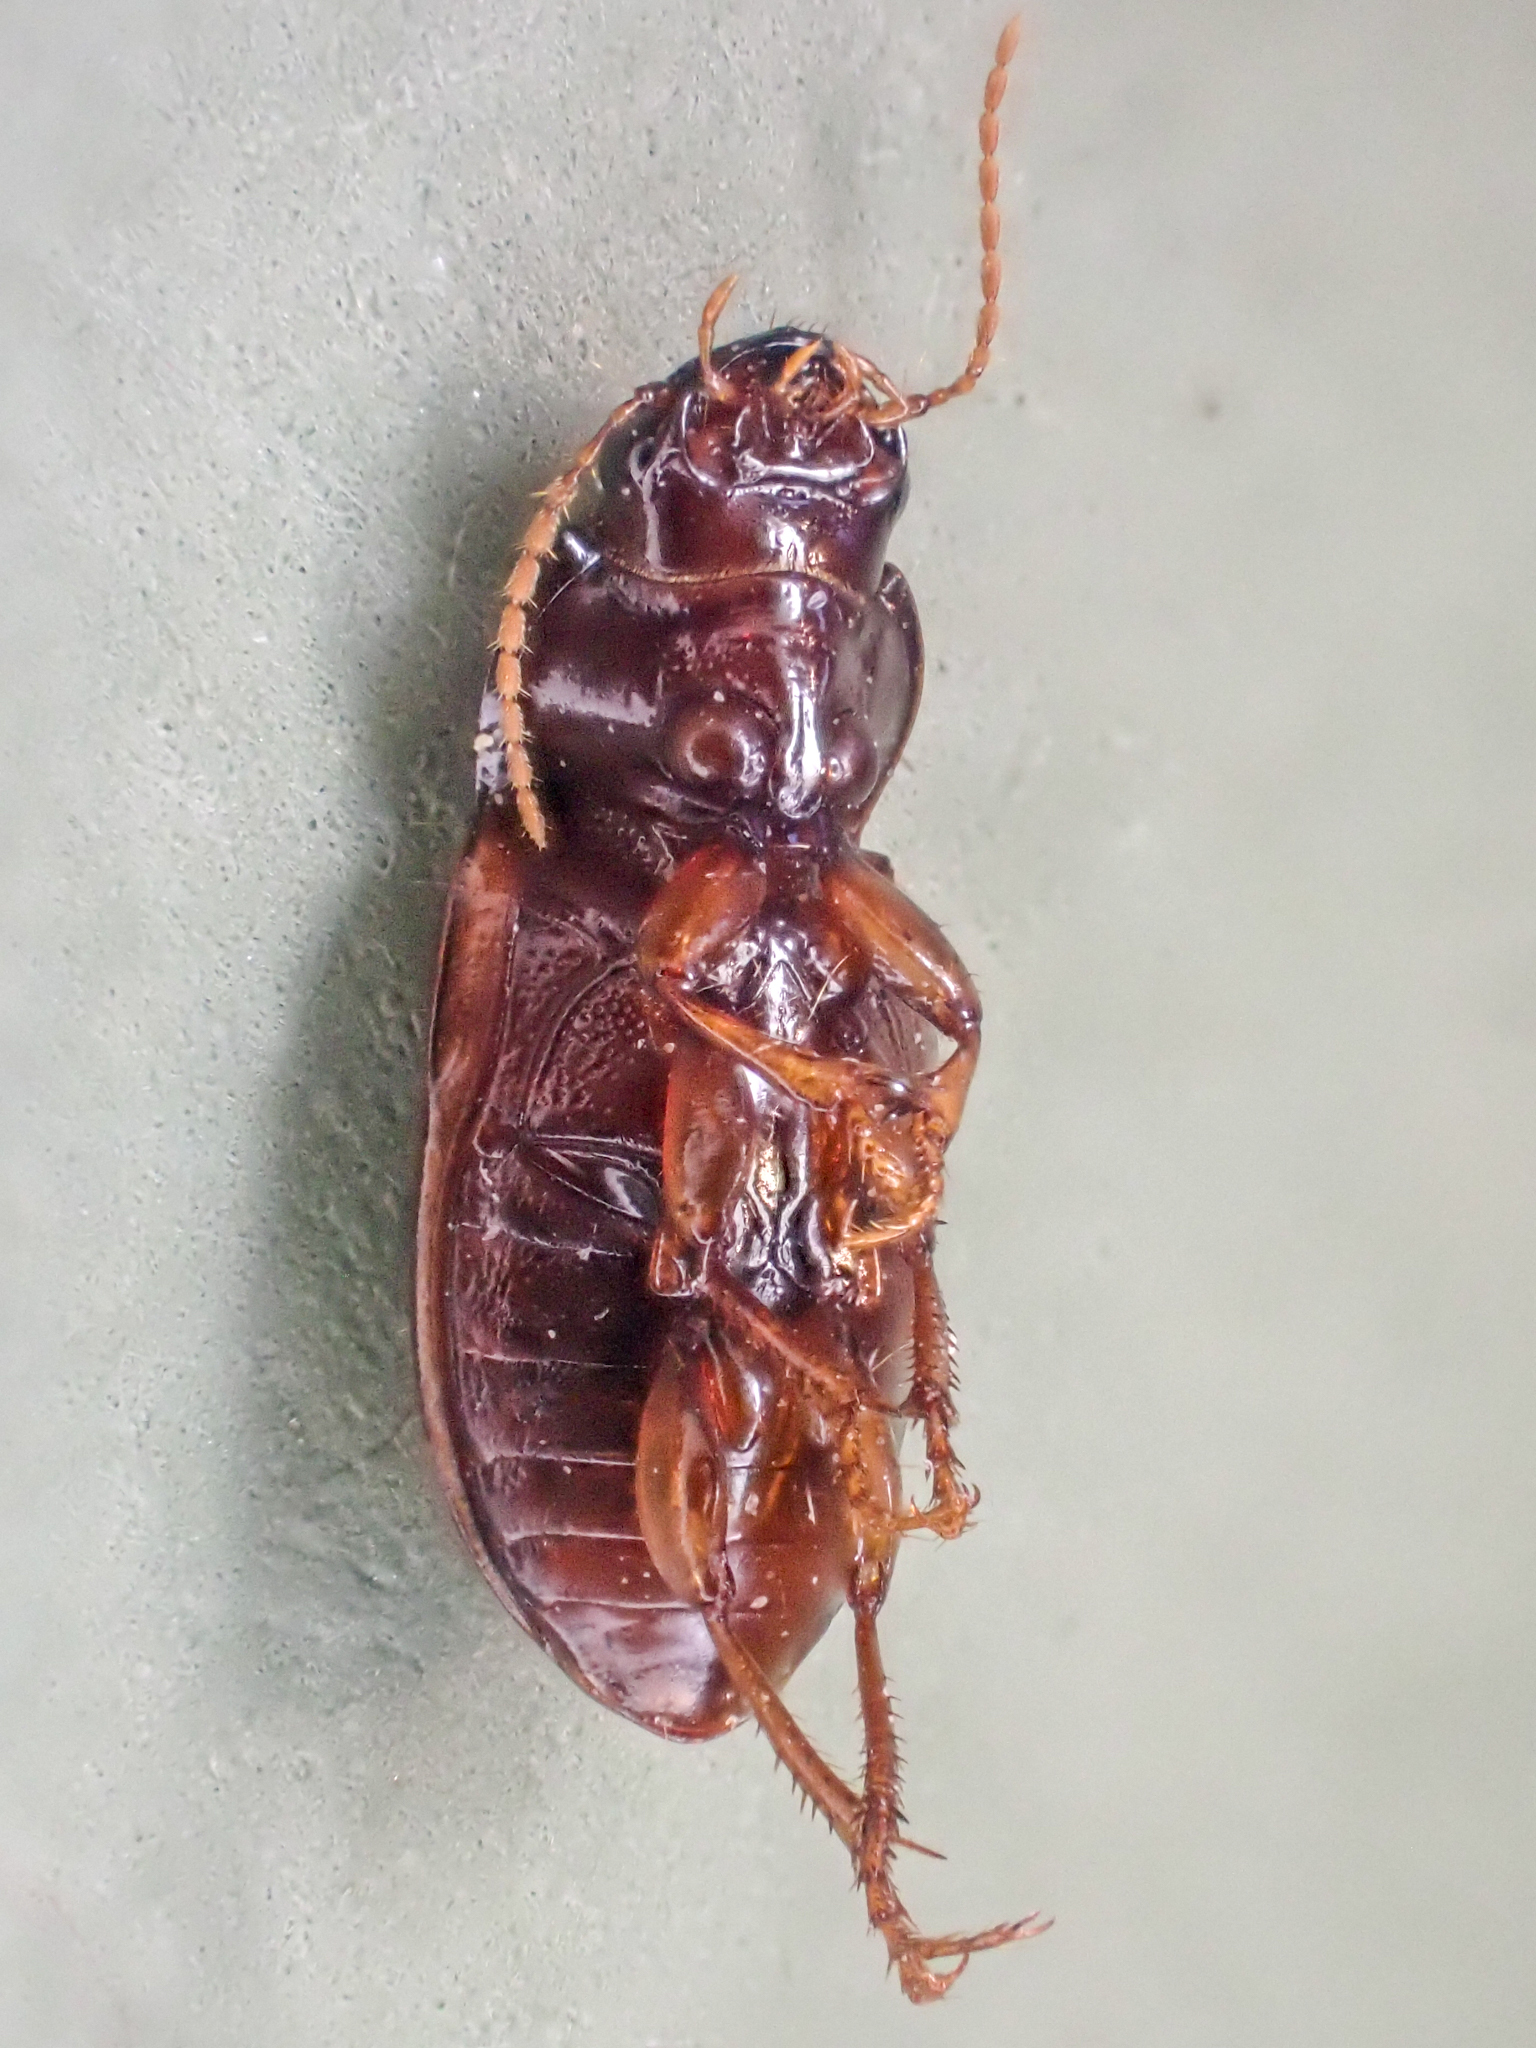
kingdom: Animalia
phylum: Arthropoda
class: Insecta
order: Coleoptera
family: Carabidae
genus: Amara
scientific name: Amara apricaria
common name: Exposed sun beetle
